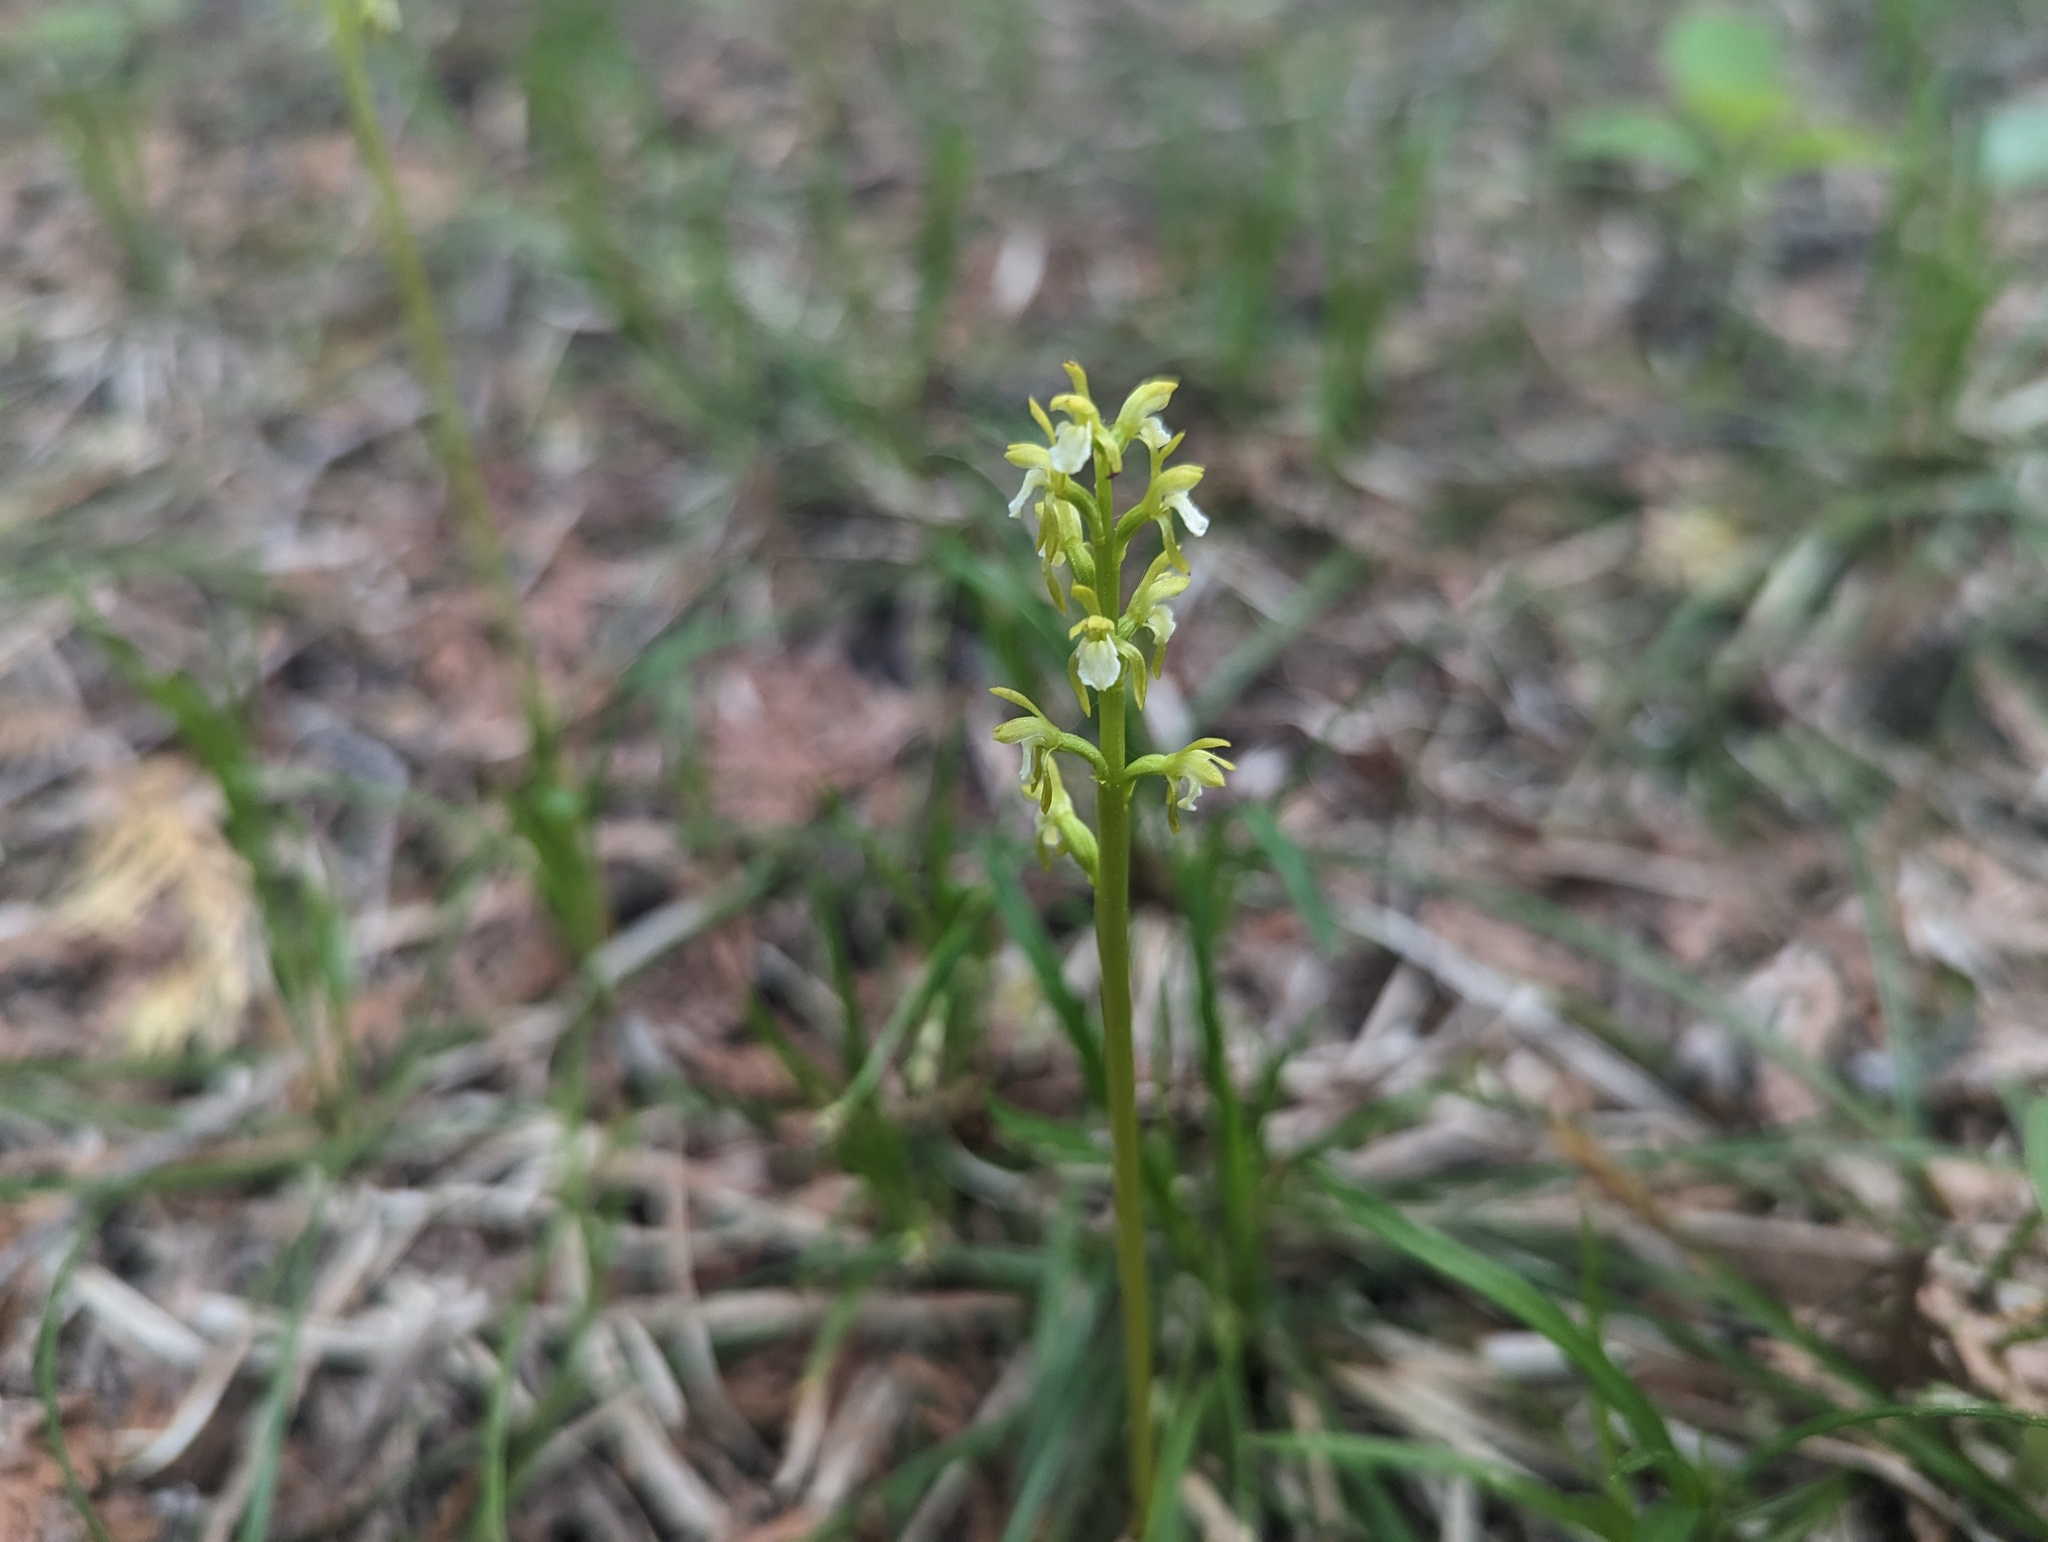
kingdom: Plantae
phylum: Tracheophyta
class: Liliopsida
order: Asparagales
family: Orchidaceae
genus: Corallorhiza
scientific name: Corallorhiza trifida
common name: Yellow coralroot
